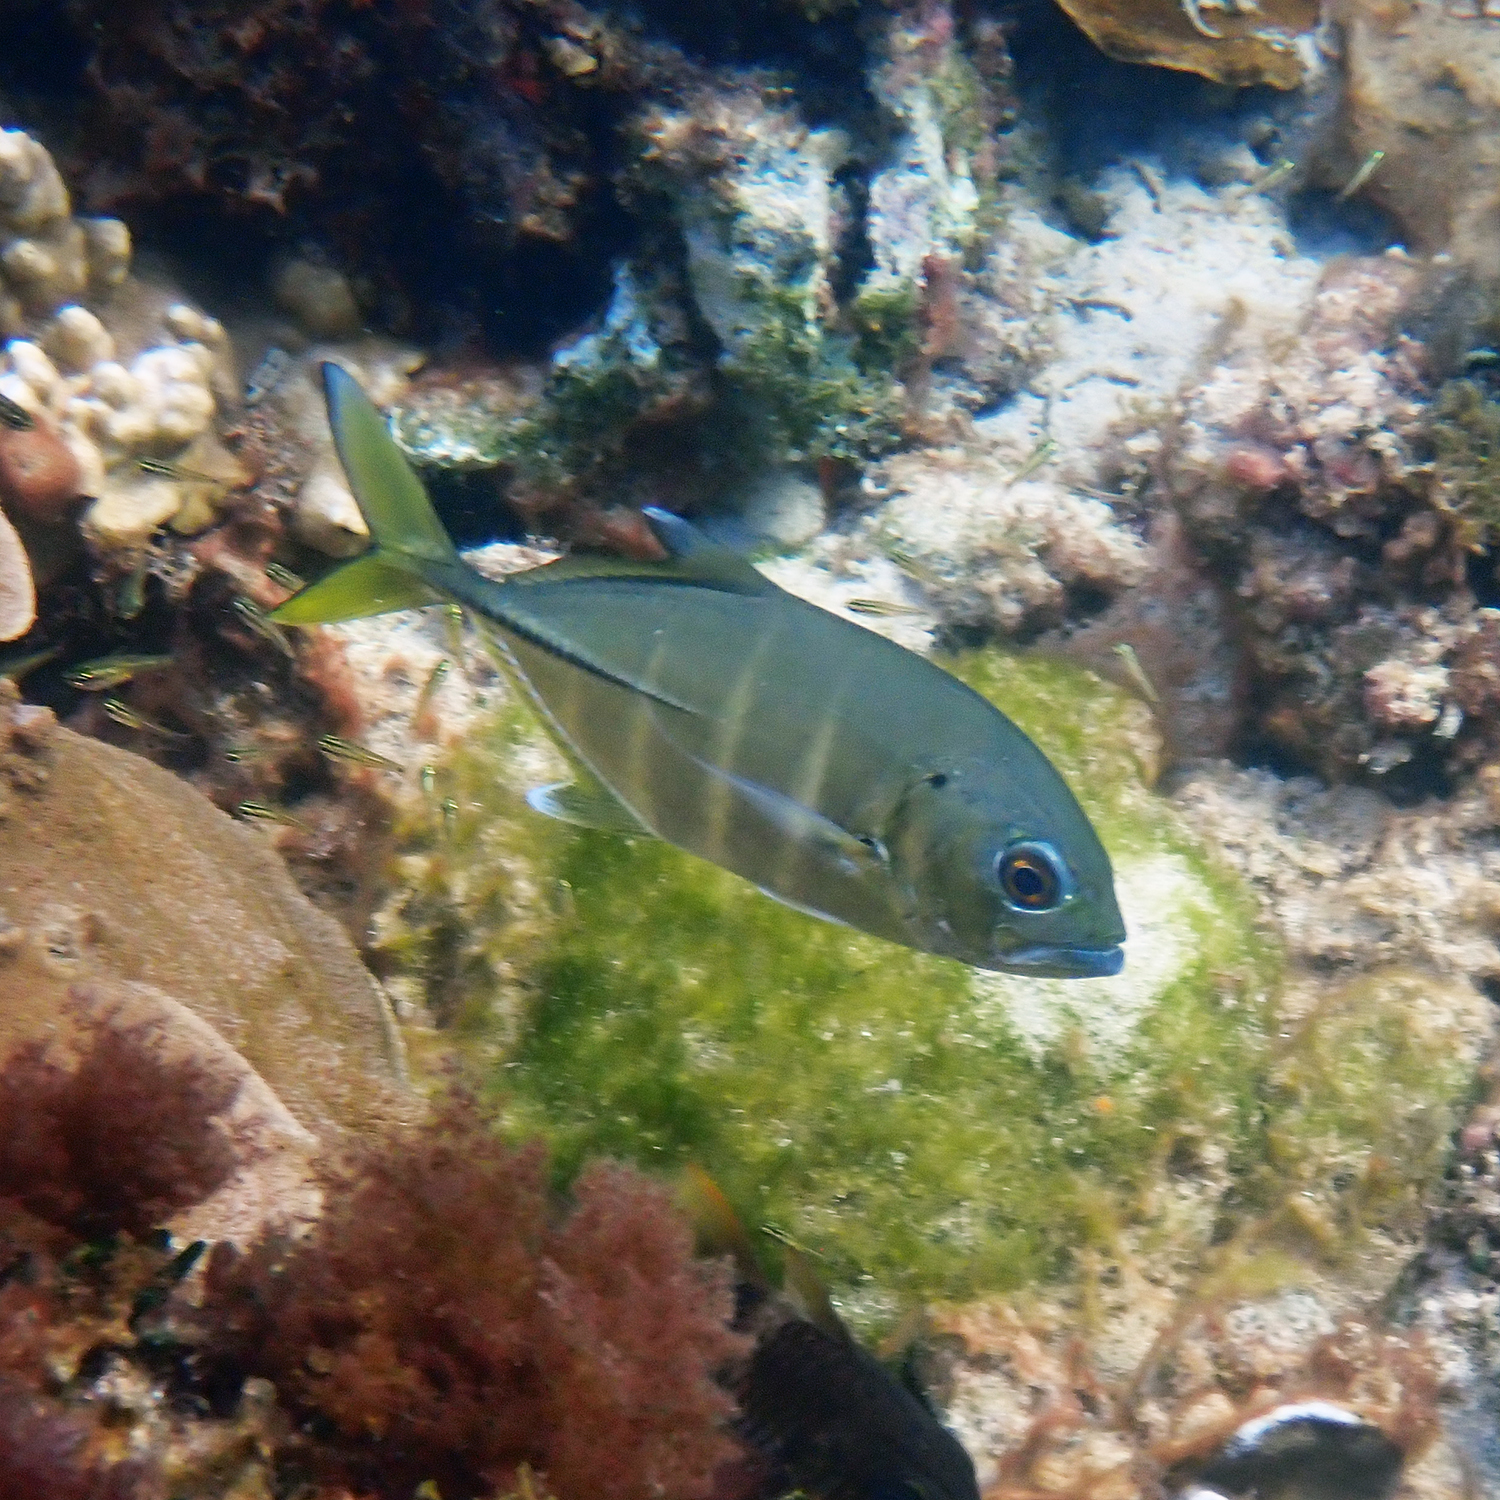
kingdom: Animalia
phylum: Chordata
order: Perciformes
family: Carangidae
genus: Caranx
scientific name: Caranx sexfasciatus
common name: Bigeye trevally
